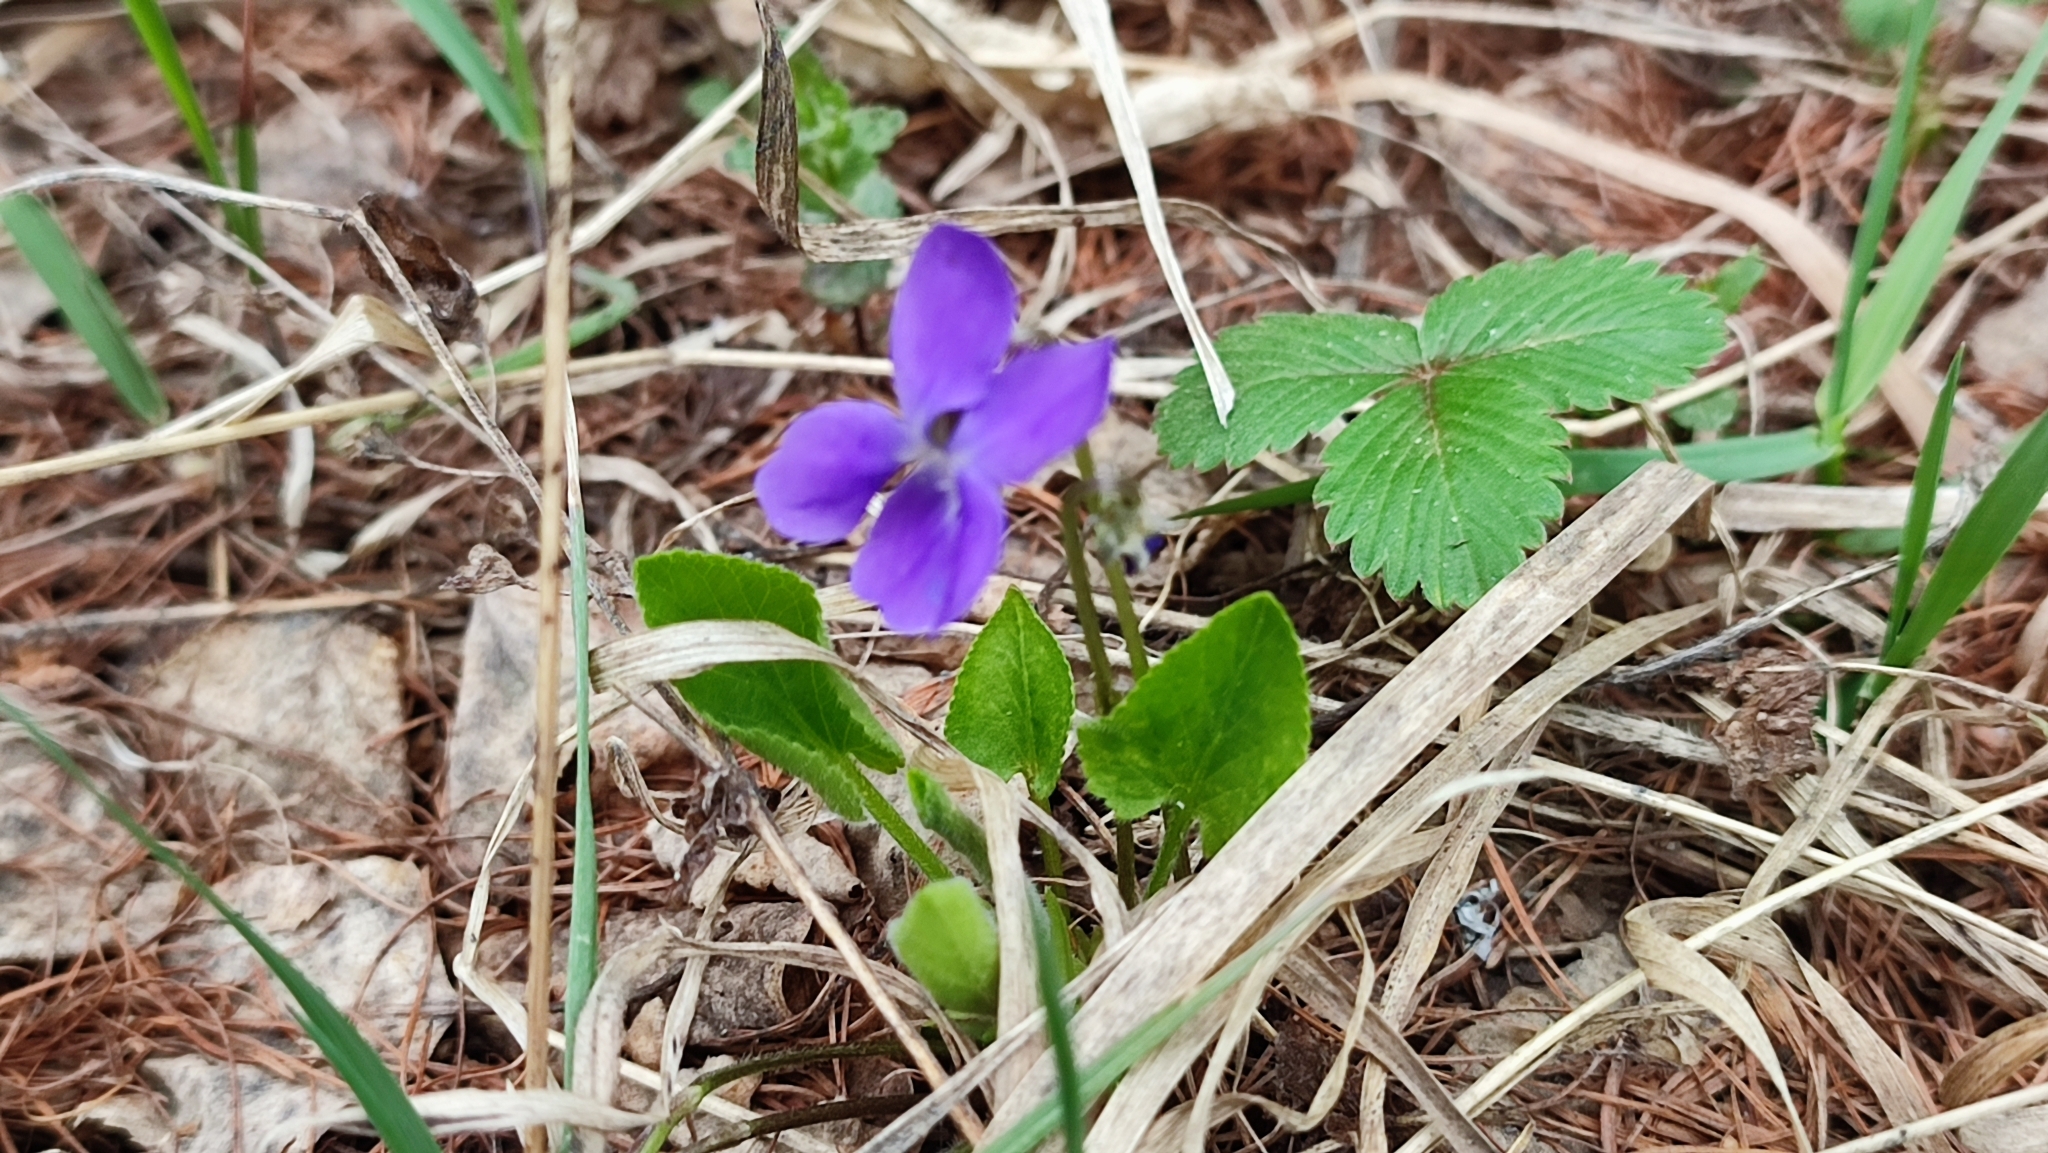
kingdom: Plantae
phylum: Tracheophyta
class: Magnoliopsida
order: Malpighiales
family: Violaceae
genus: Viola
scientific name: Viola hirta
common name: Hairy violet
